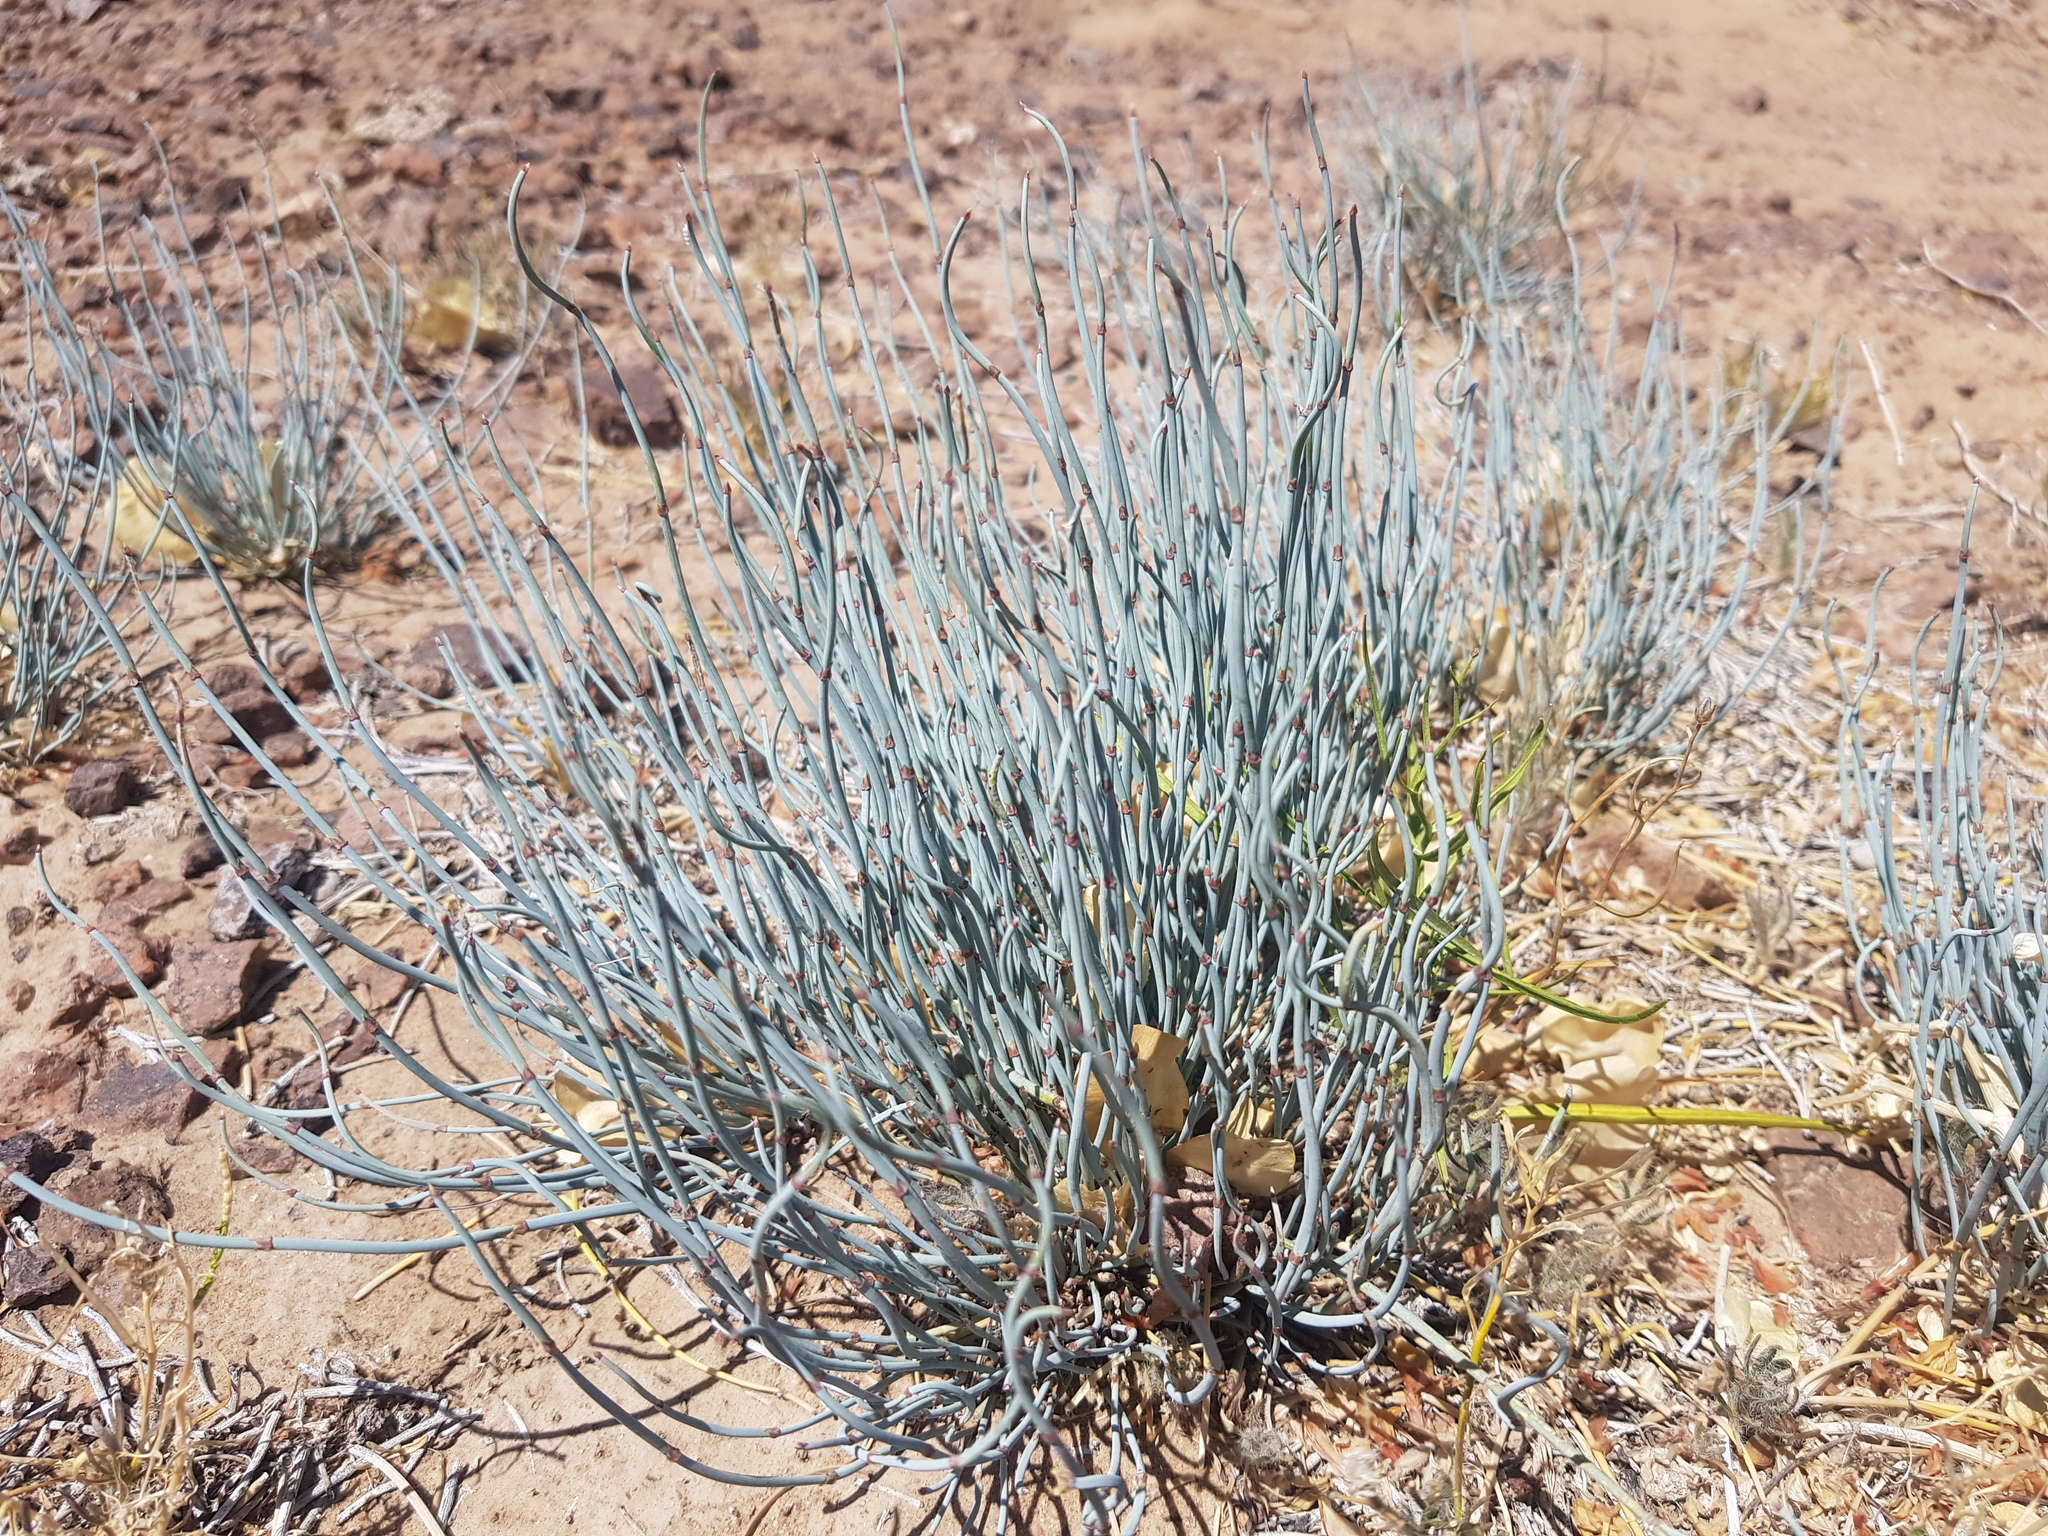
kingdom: Plantae
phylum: Tracheophyta
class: Gnetopsida
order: Ephedrales
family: Ephedraceae
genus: Ephedra
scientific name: Ephedra intermedia
